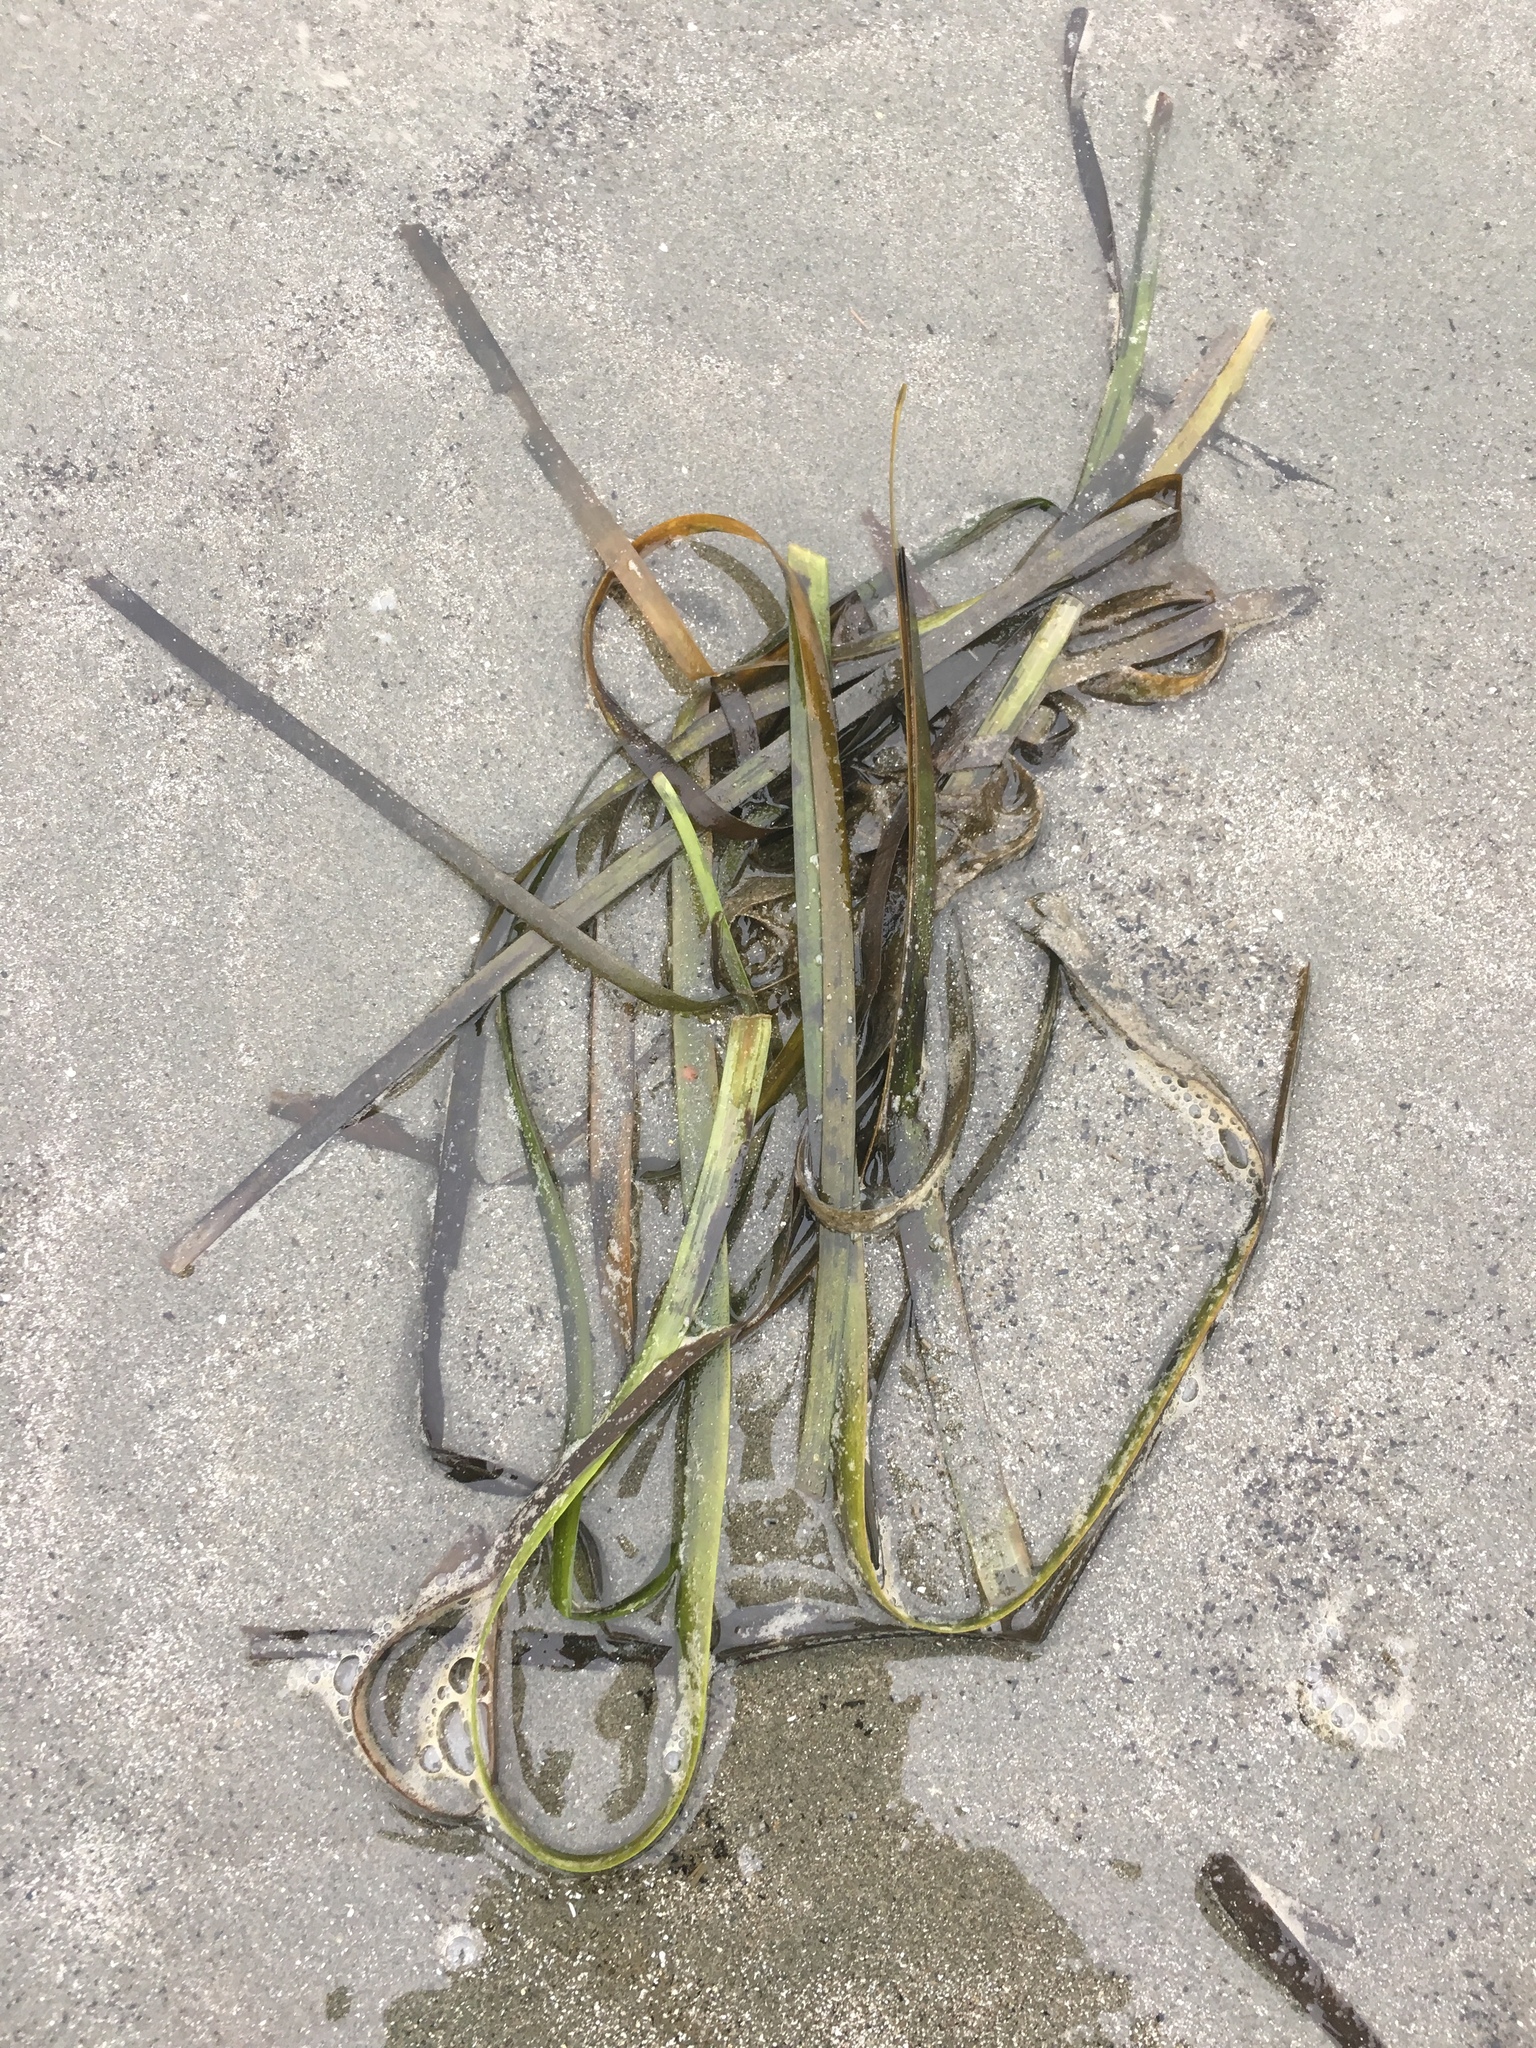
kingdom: Plantae
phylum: Tracheophyta
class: Liliopsida
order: Alismatales
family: Zosteraceae
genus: Zostera
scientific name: Zostera marina
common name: Eelgrass
